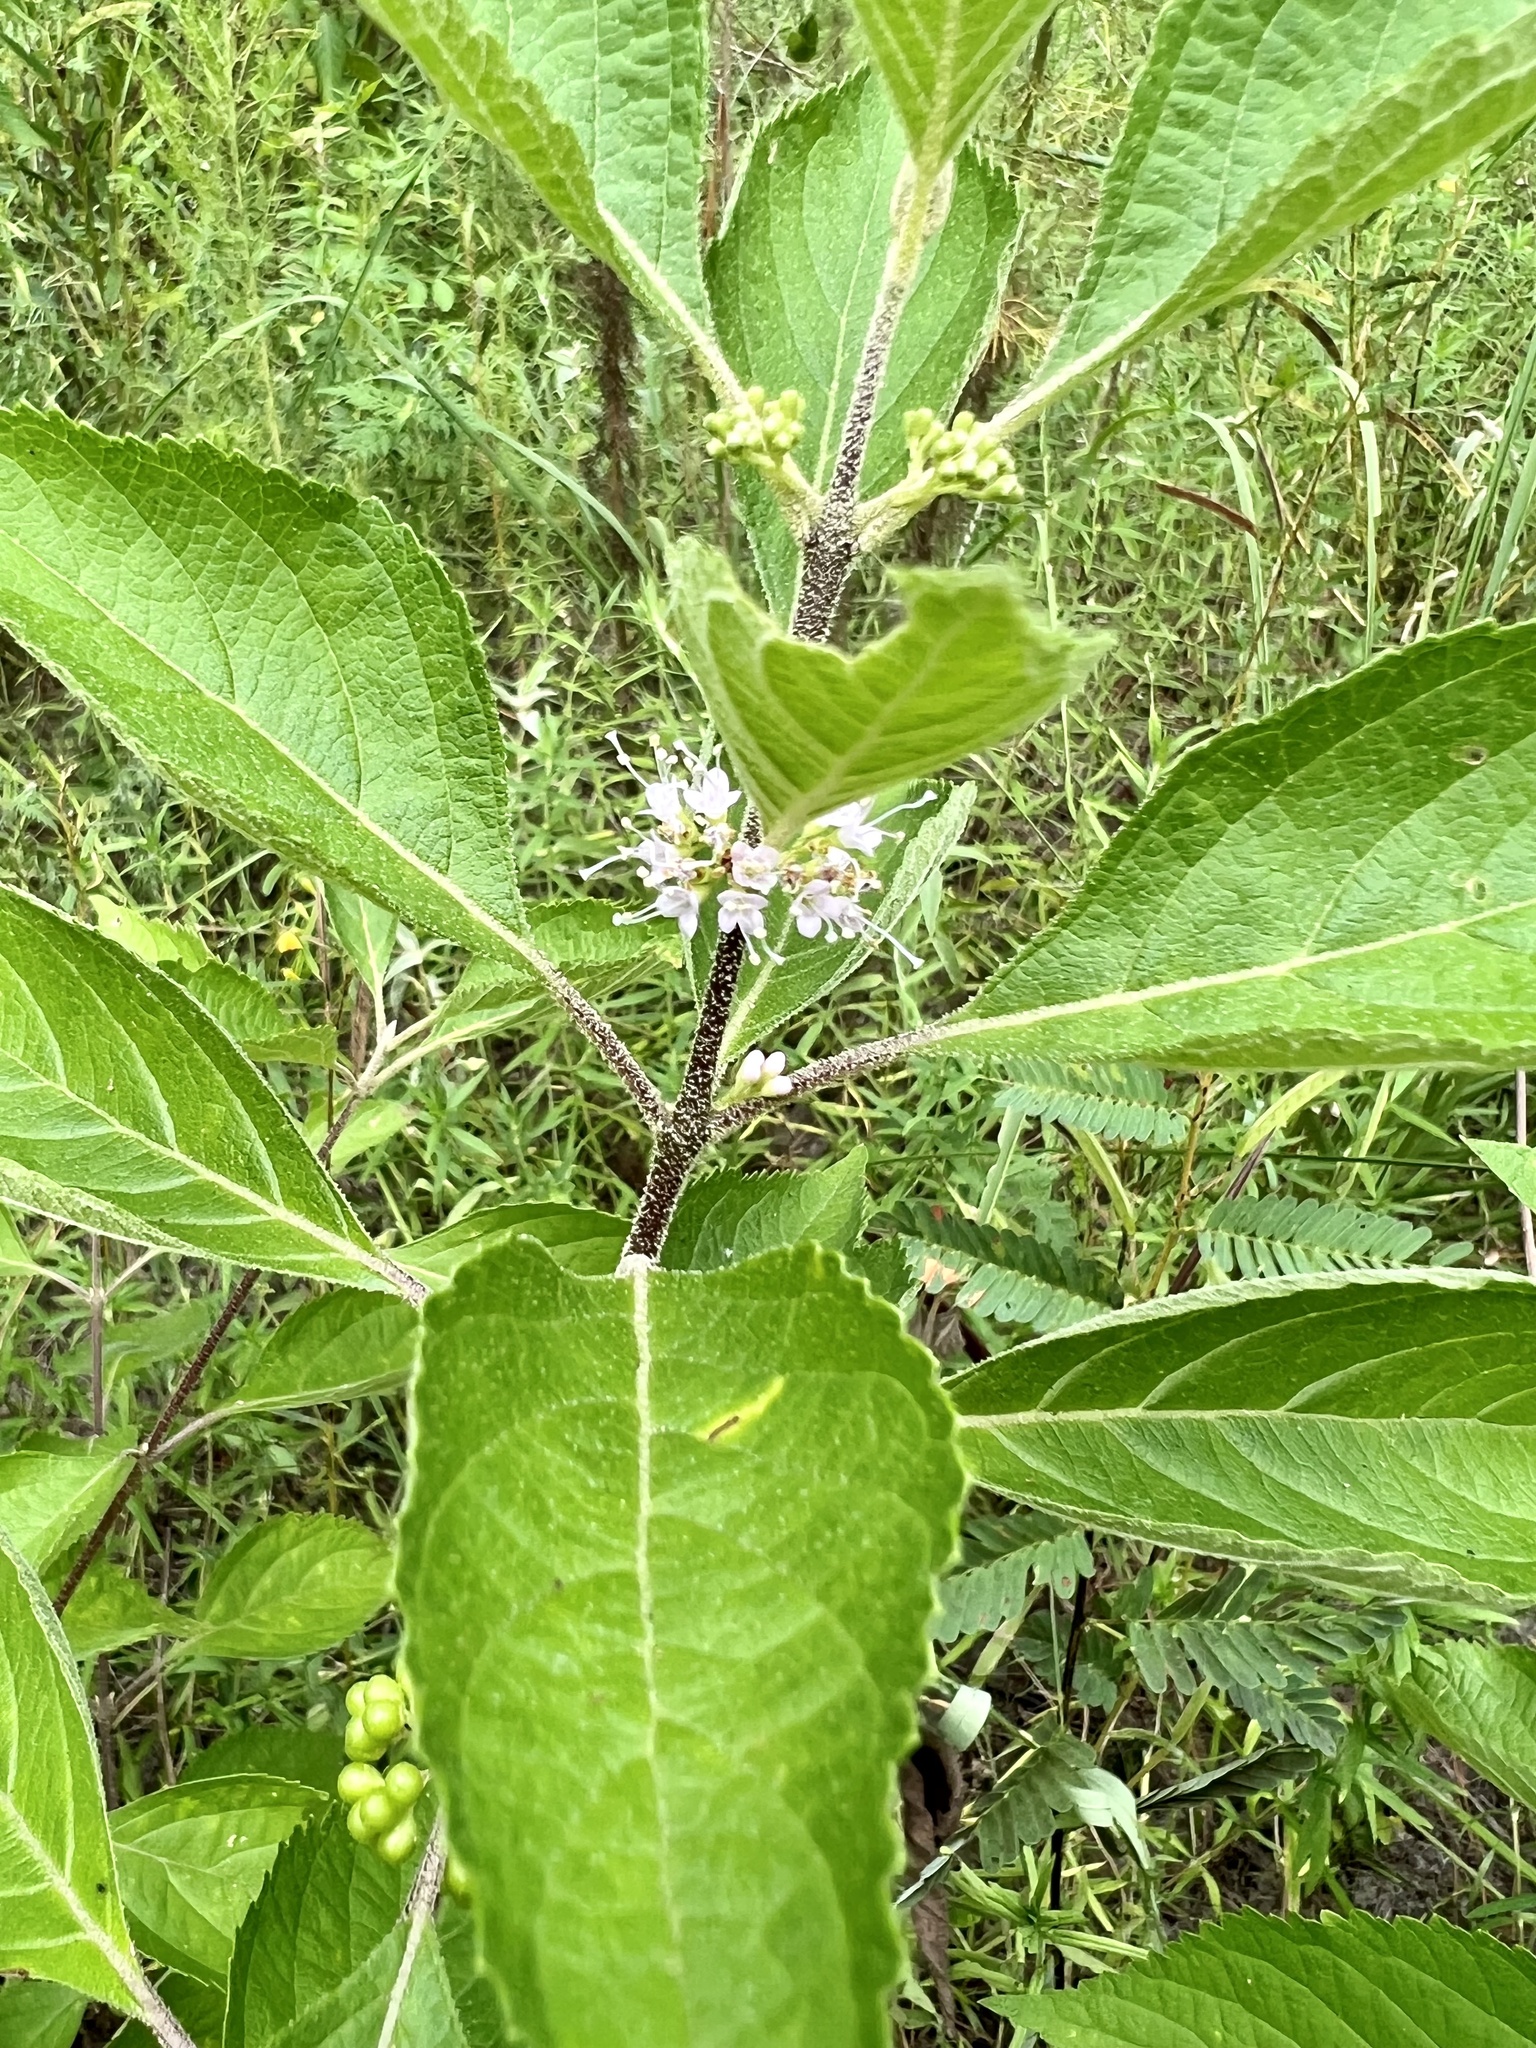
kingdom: Plantae
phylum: Tracheophyta
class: Magnoliopsida
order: Lamiales
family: Lamiaceae
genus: Callicarpa
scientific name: Callicarpa americana
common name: American beautyberry
